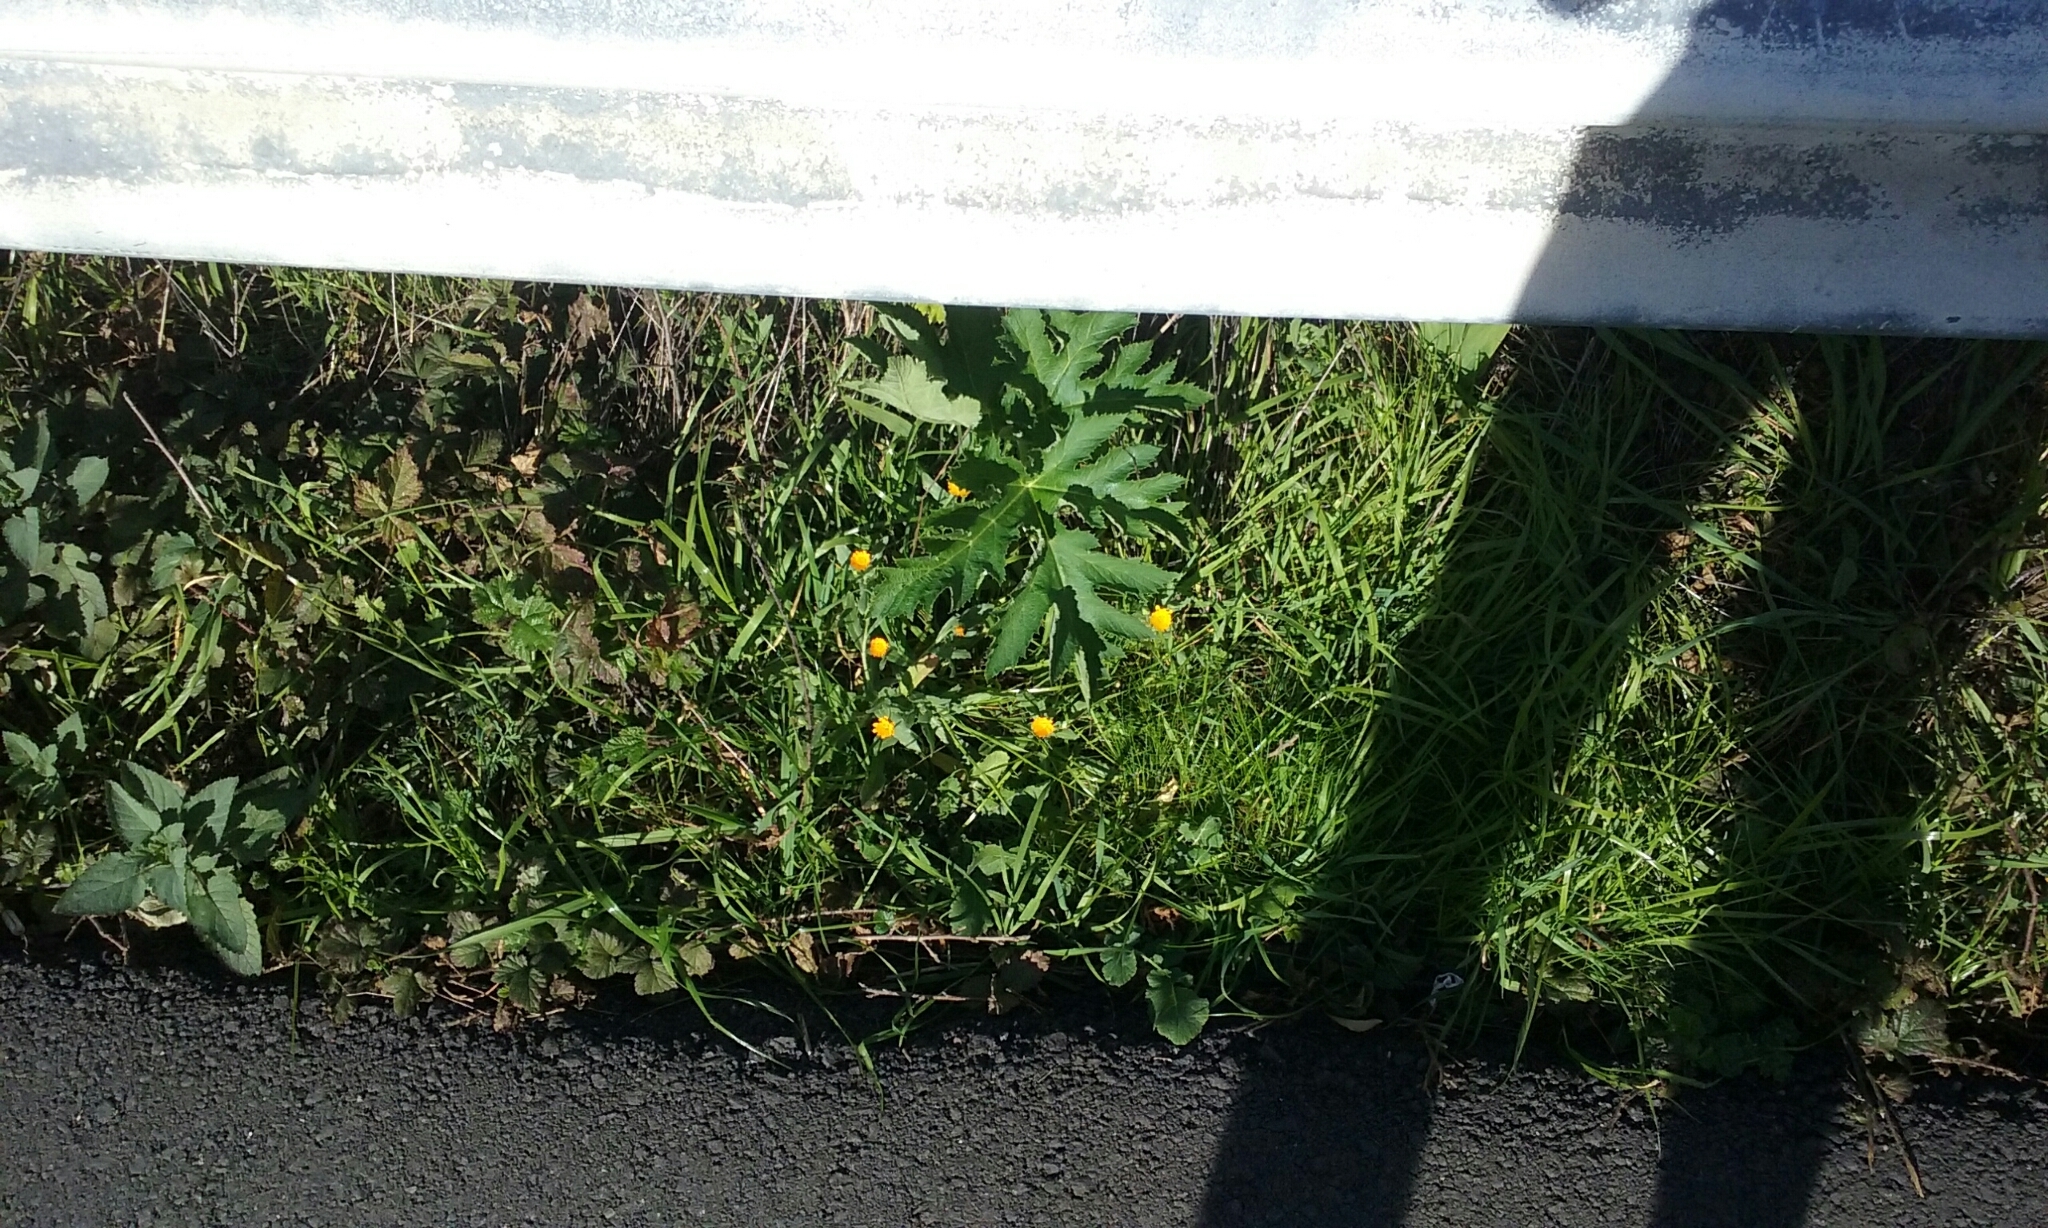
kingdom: Plantae
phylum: Tracheophyta
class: Magnoliopsida
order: Asterales
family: Asteraceae
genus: Calendula
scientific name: Calendula arvensis
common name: Field marigold
